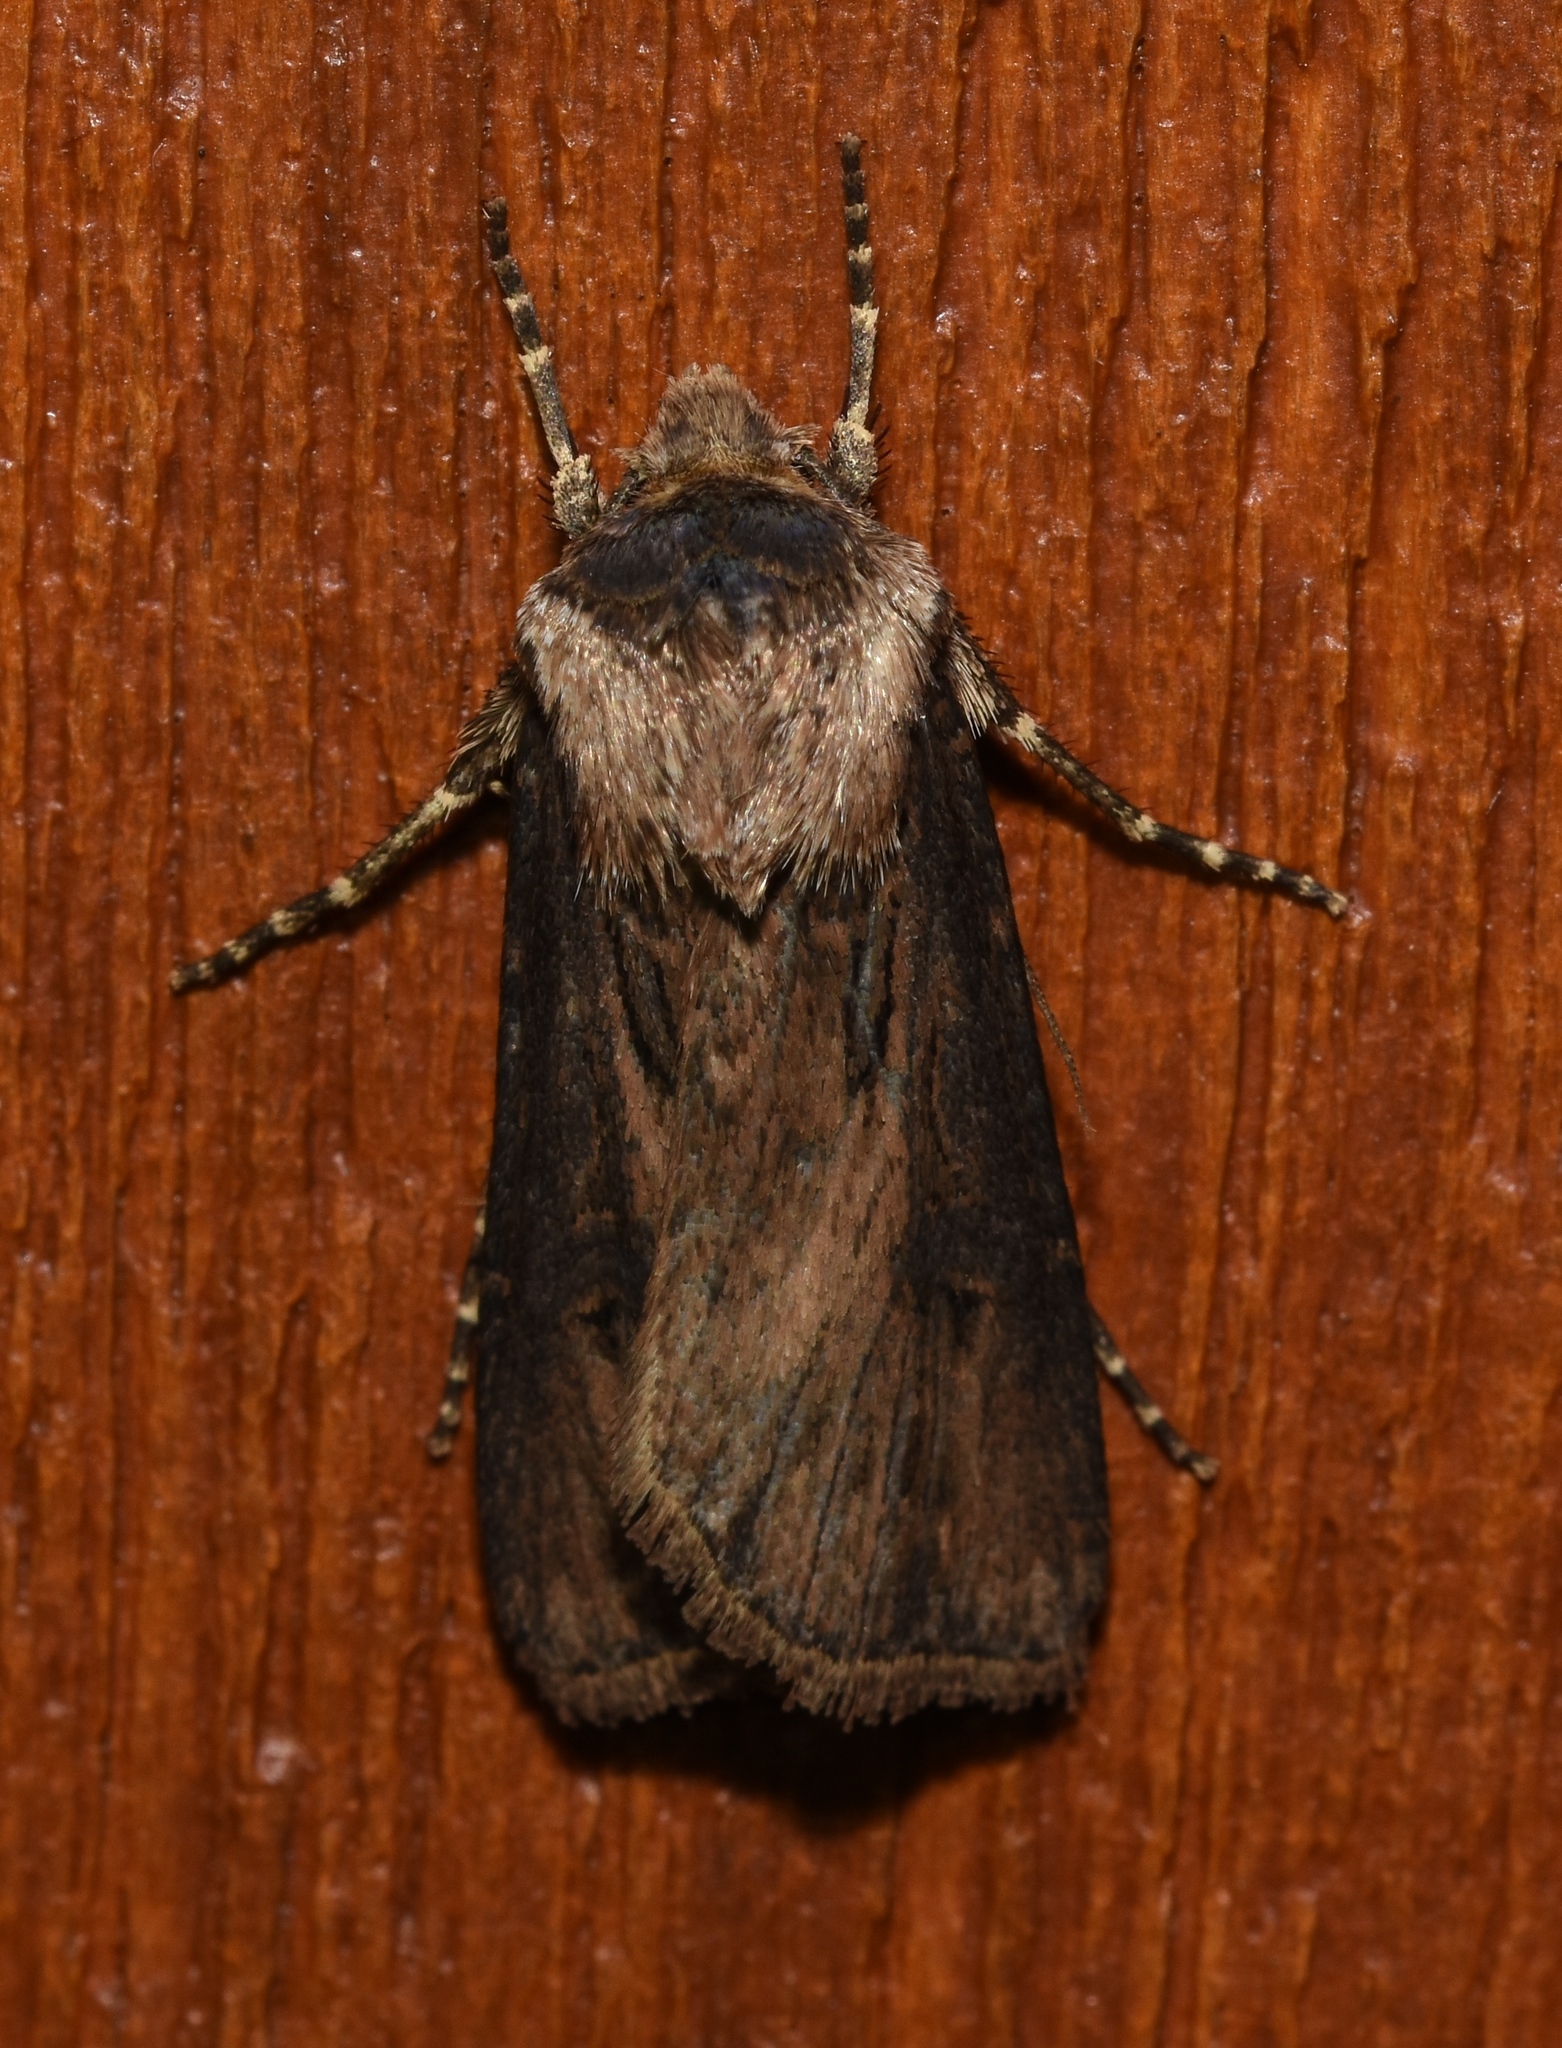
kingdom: Animalia
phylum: Arthropoda
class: Insecta
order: Lepidoptera
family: Noctuidae
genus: Agrotis
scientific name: Agrotis venerabilis
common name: Venerable dart
